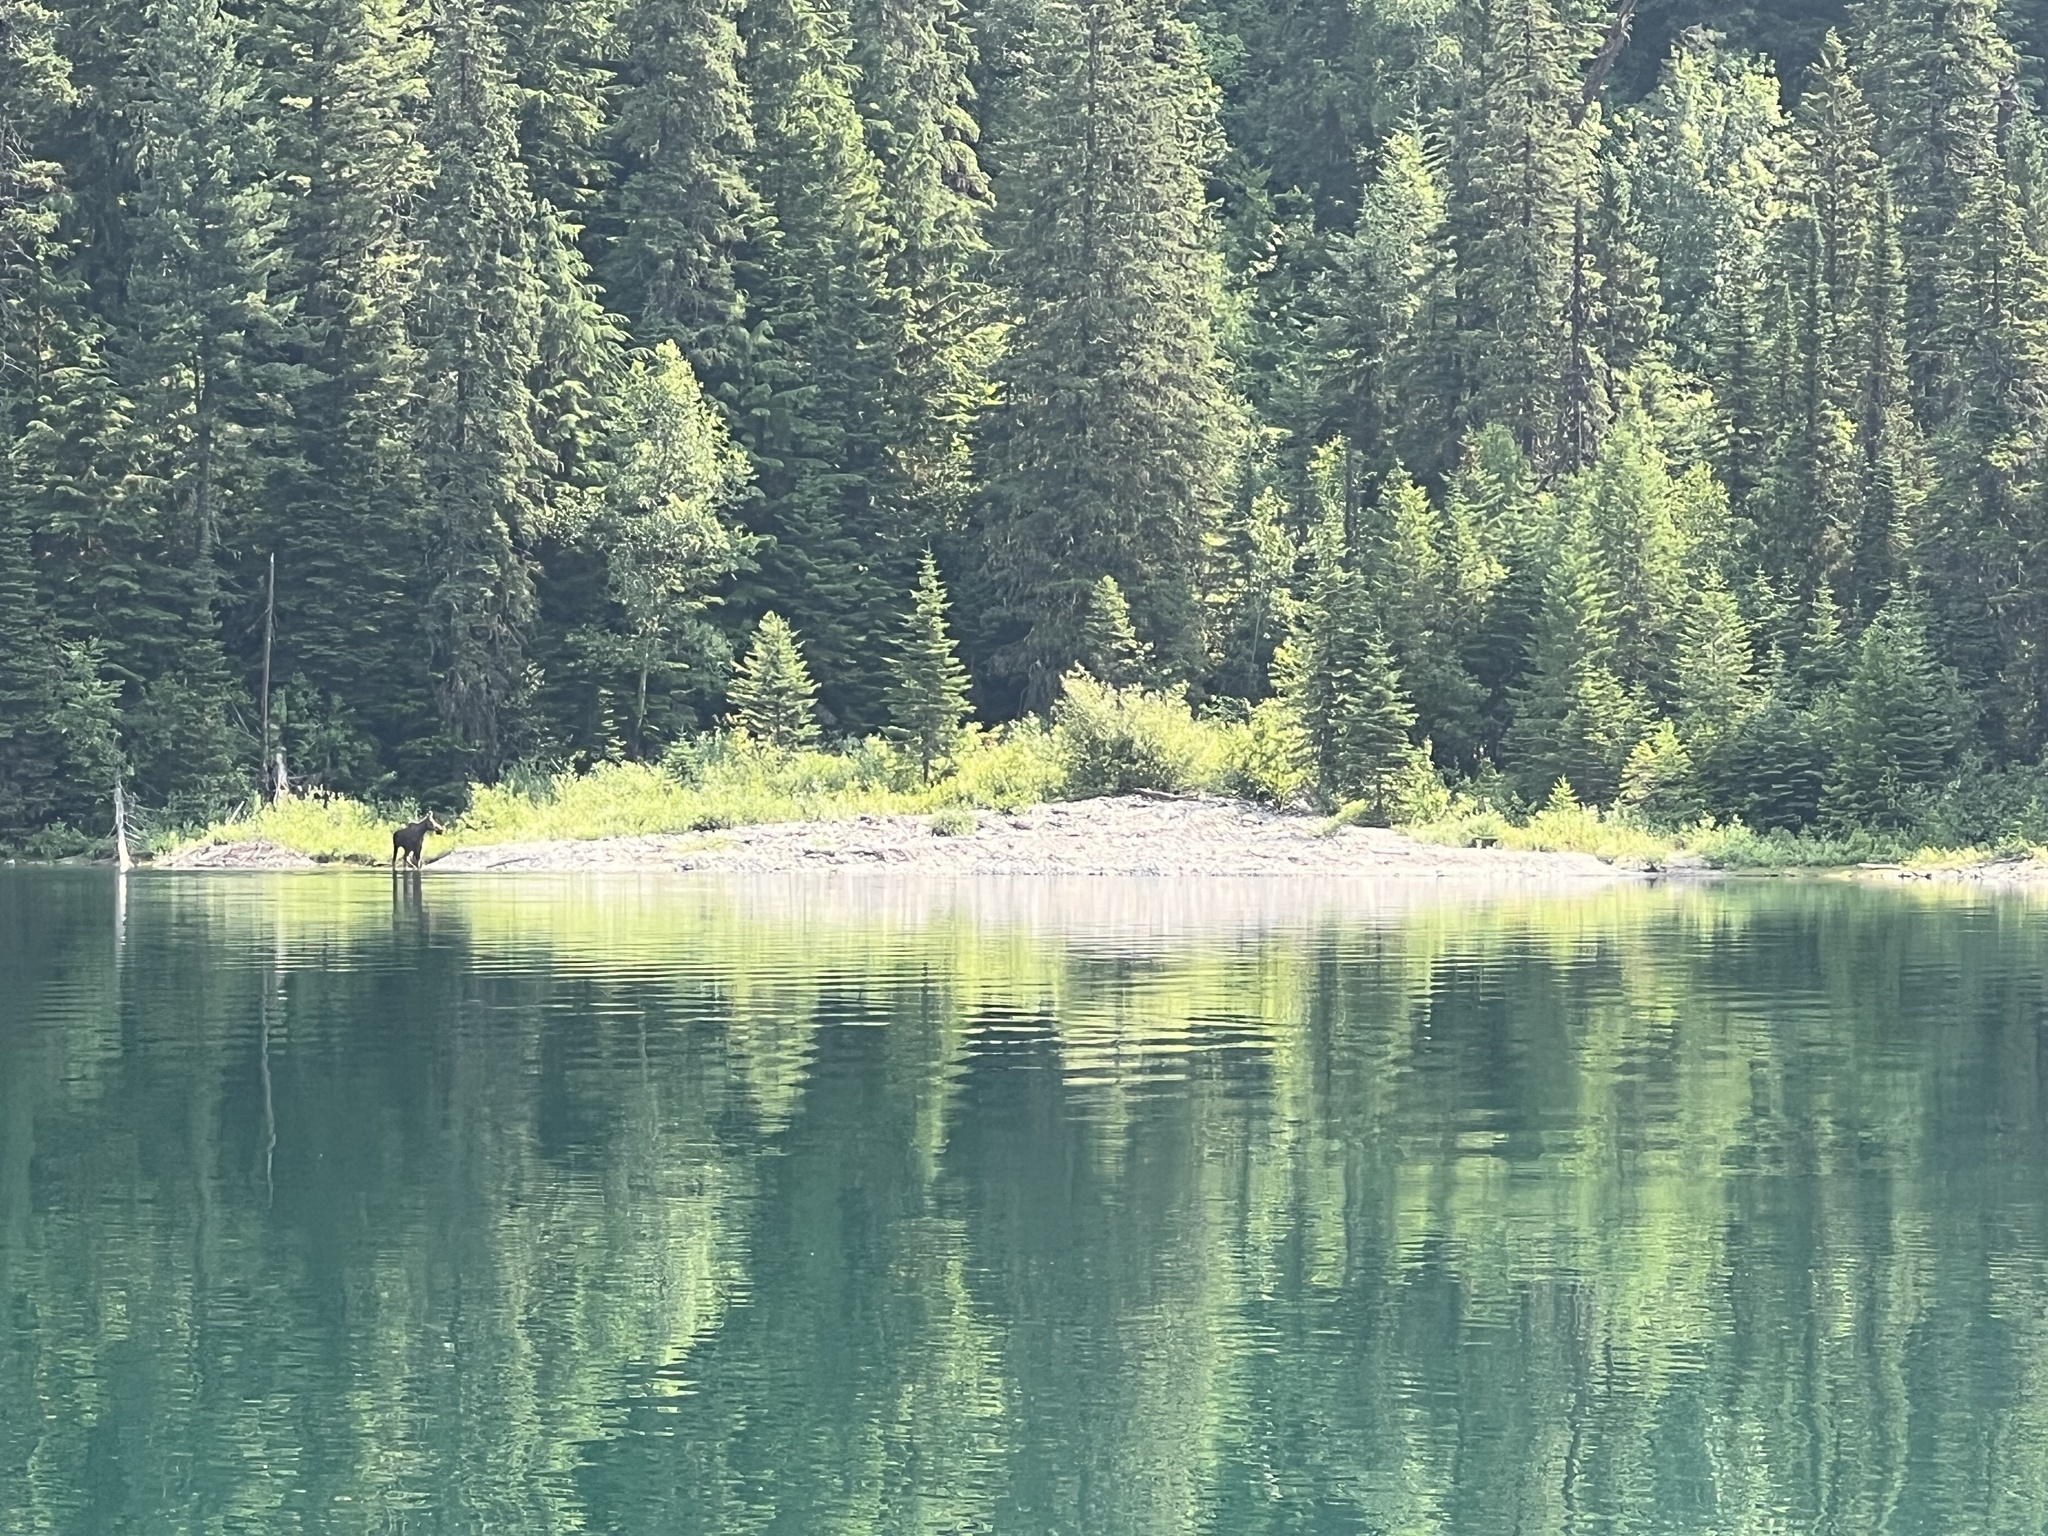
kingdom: Animalia
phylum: Chordata
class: Mammalia
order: Artiodactyla
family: Cervidae
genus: Alces
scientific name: Alces alces
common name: Moose
